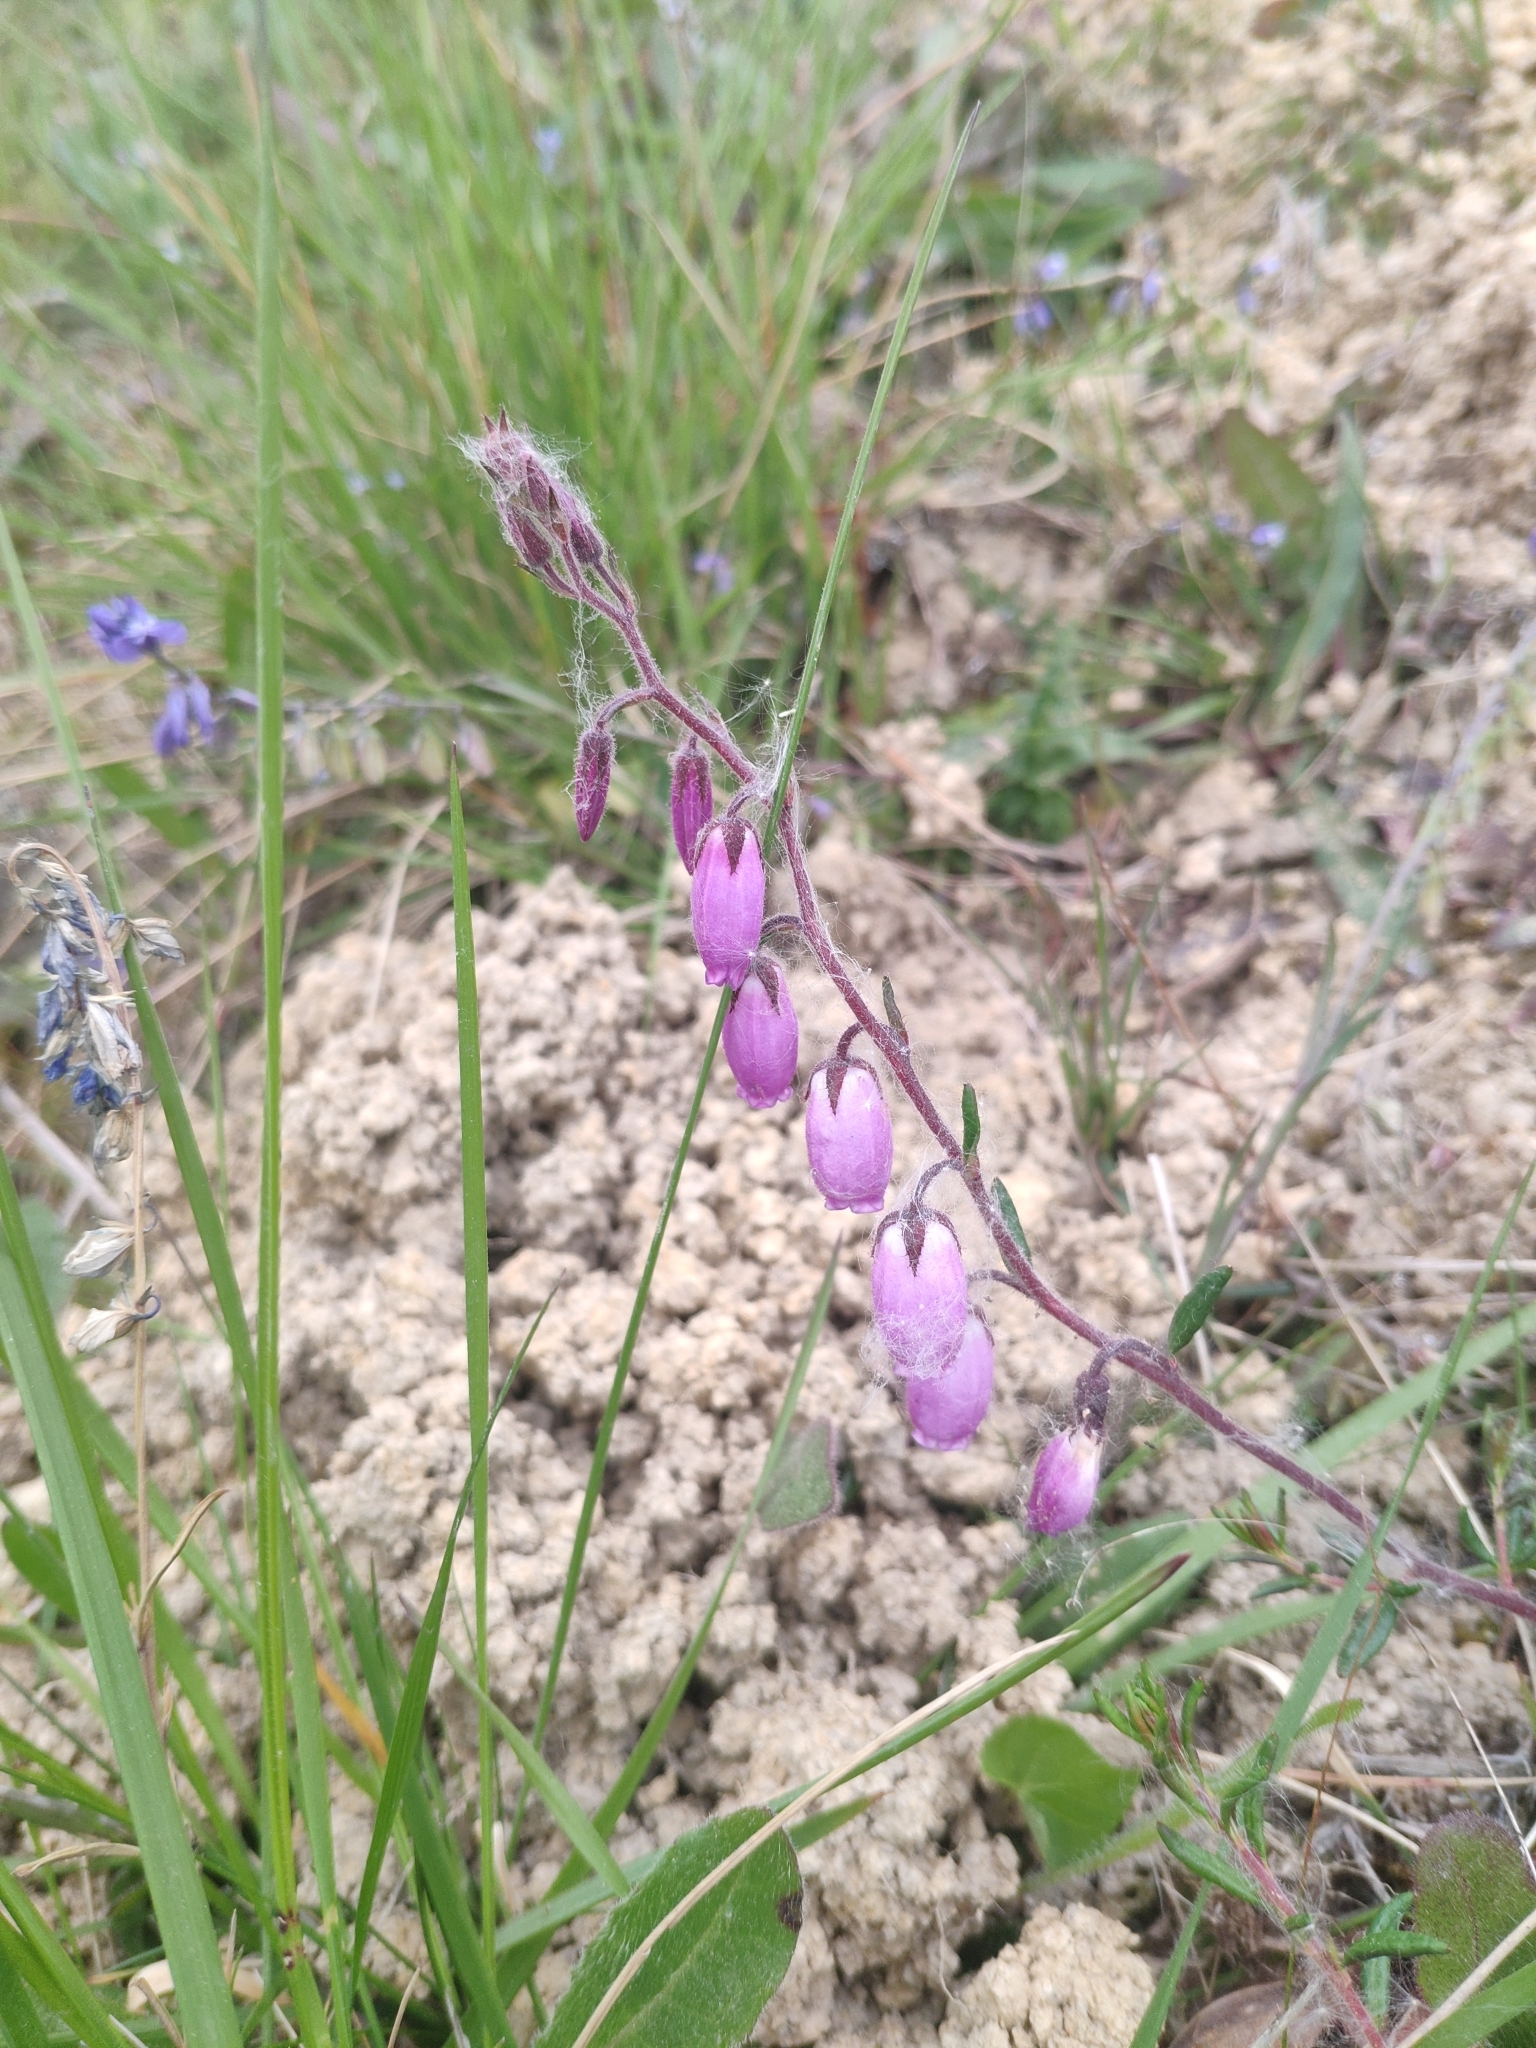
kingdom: Plantae
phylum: Tracheophyta
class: Magnoliopsida
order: Ericales
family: Ericaceae
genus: Daboecia
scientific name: Daboecia cantabrica
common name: St. dabeoc's-heath
